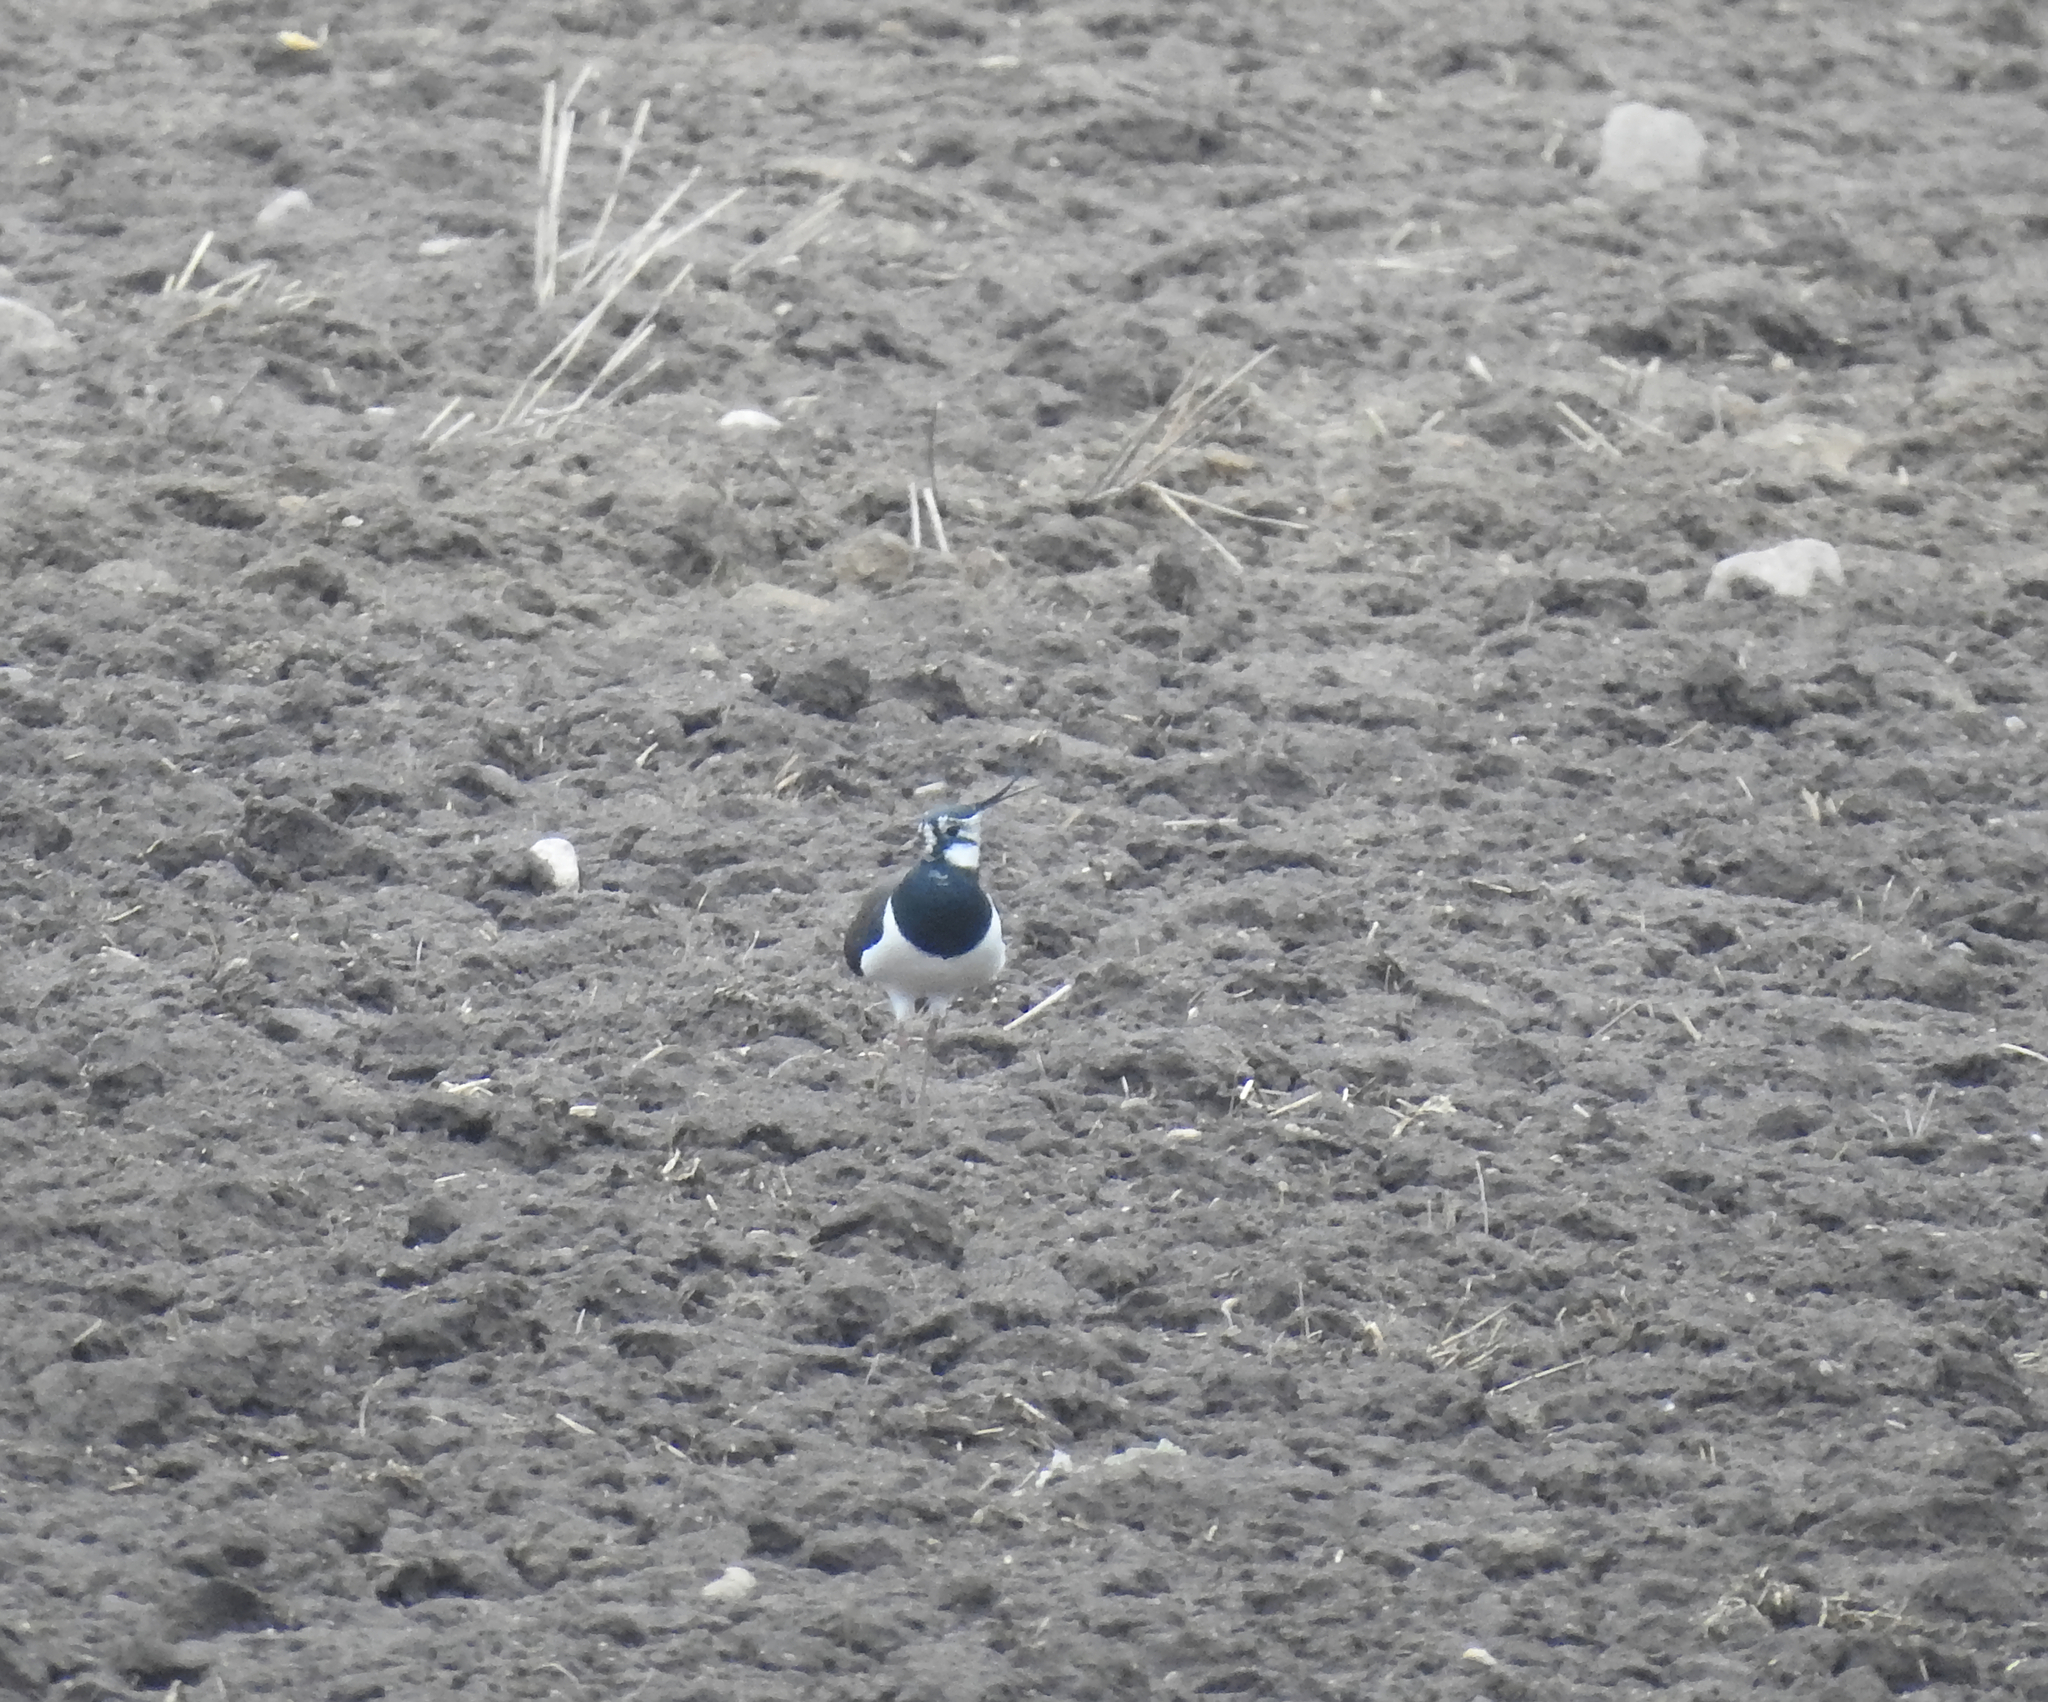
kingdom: Animalia
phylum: Chordata
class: Aves
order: Charadriiformes
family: Charadriidae
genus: Vanellus
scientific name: Vanellus vanellus
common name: Northern lapwing
